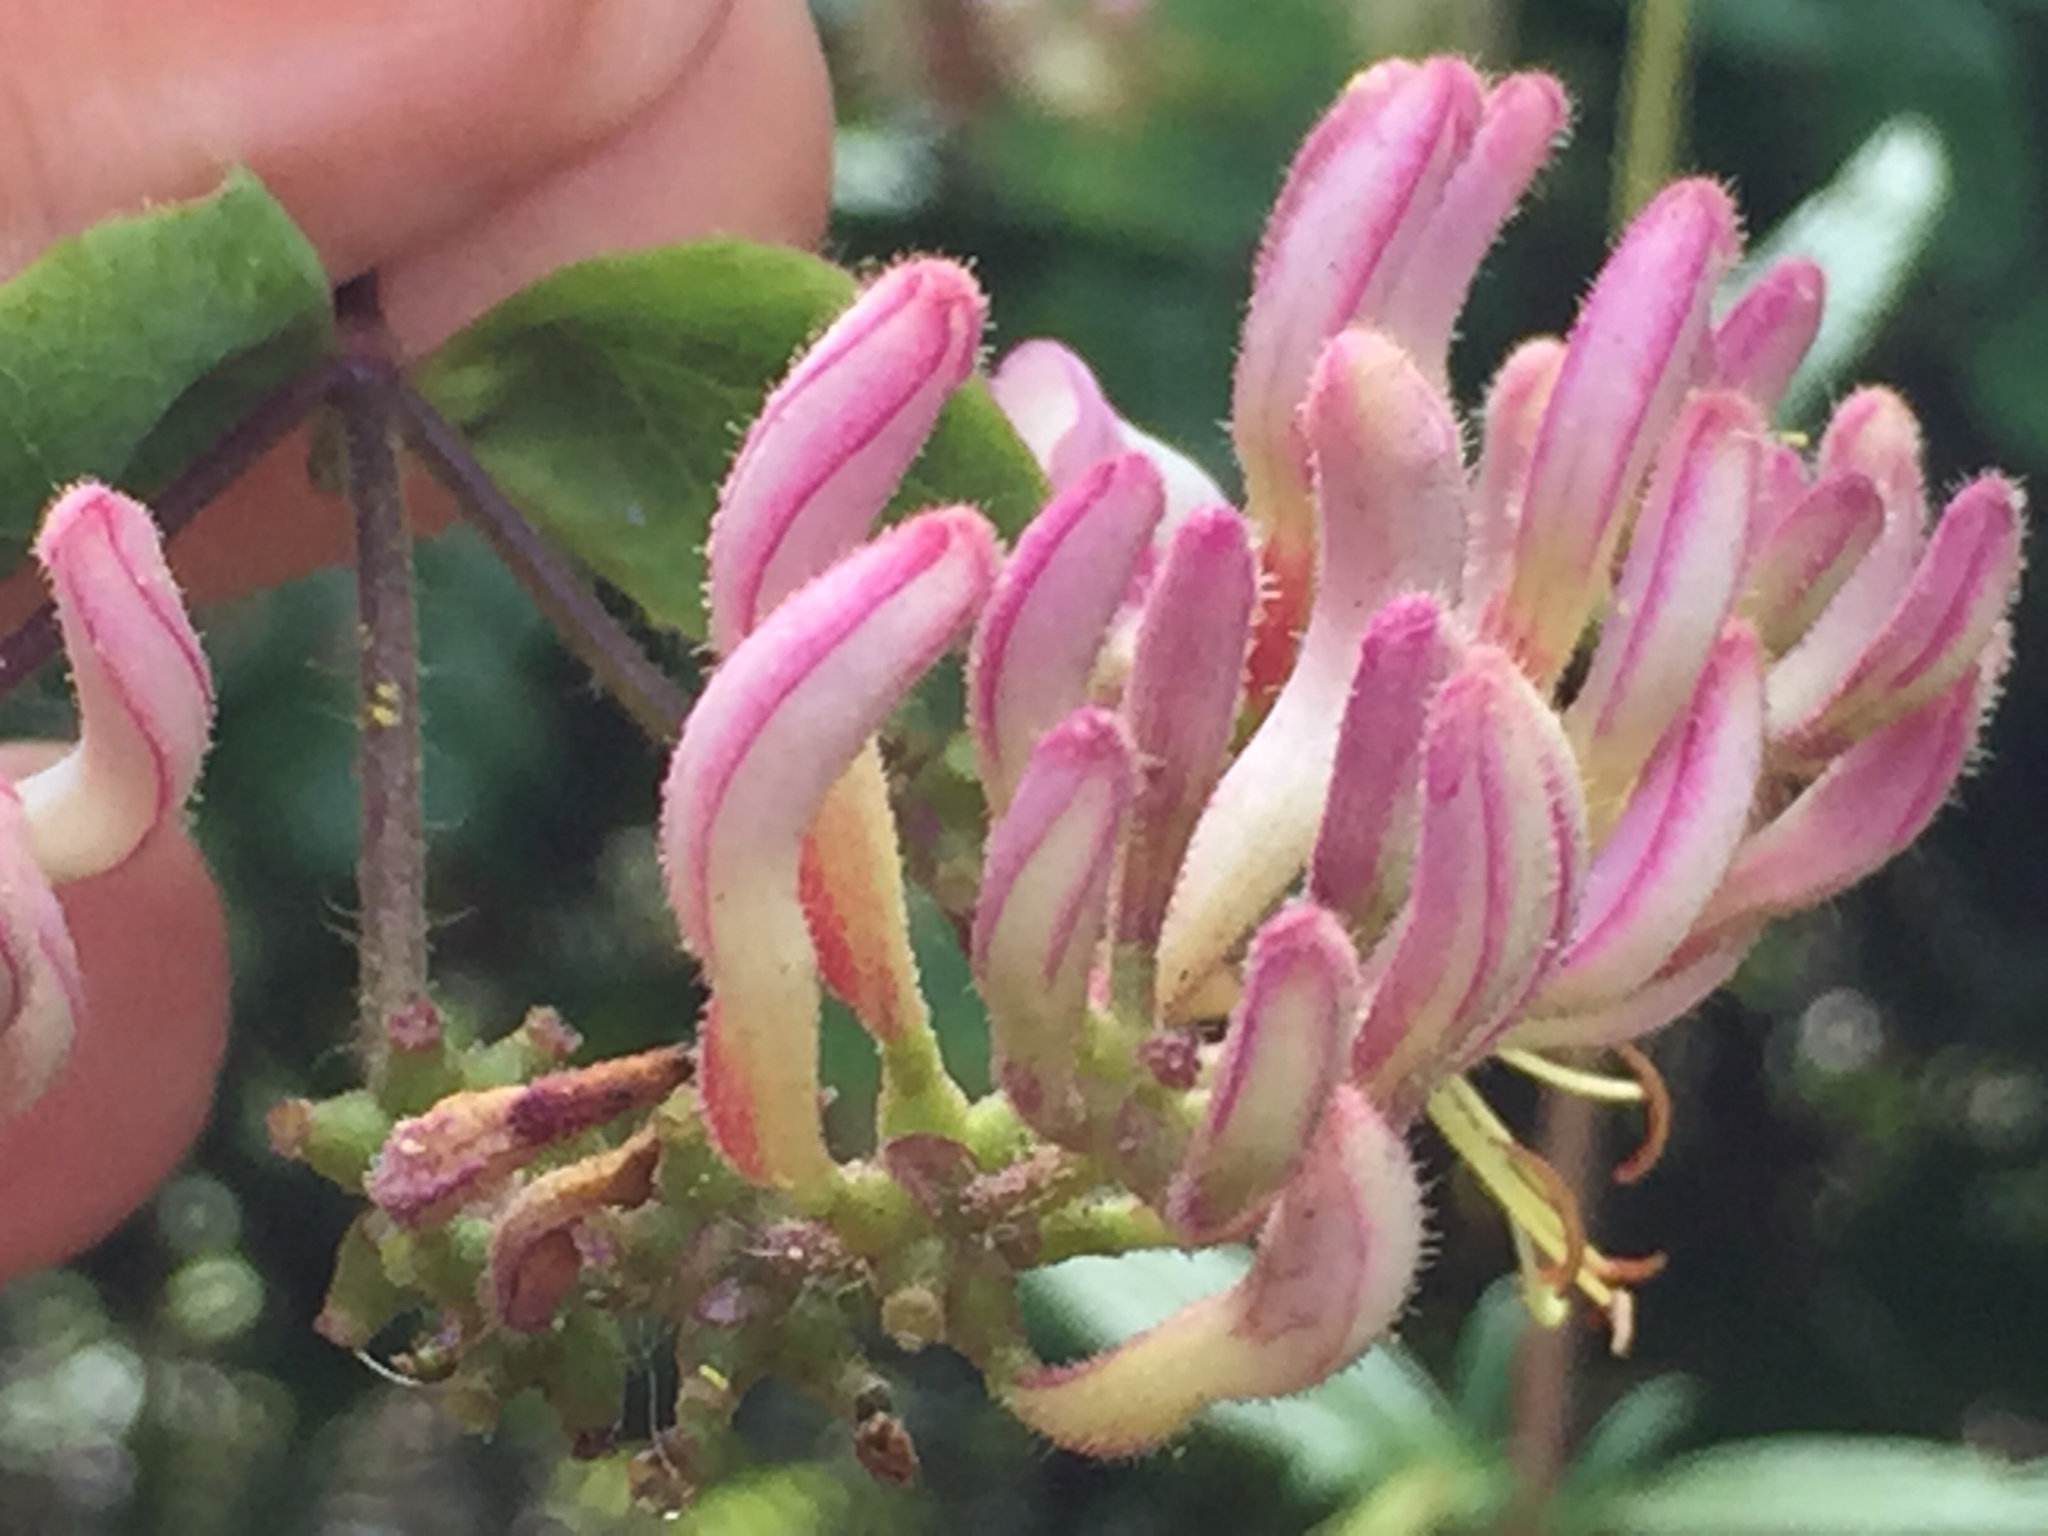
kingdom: Plantae
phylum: Tracheophyta
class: Magnoliopsida
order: Dipsacales
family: Caprifoliaceae
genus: Lonicera
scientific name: Lonicera hispidula
